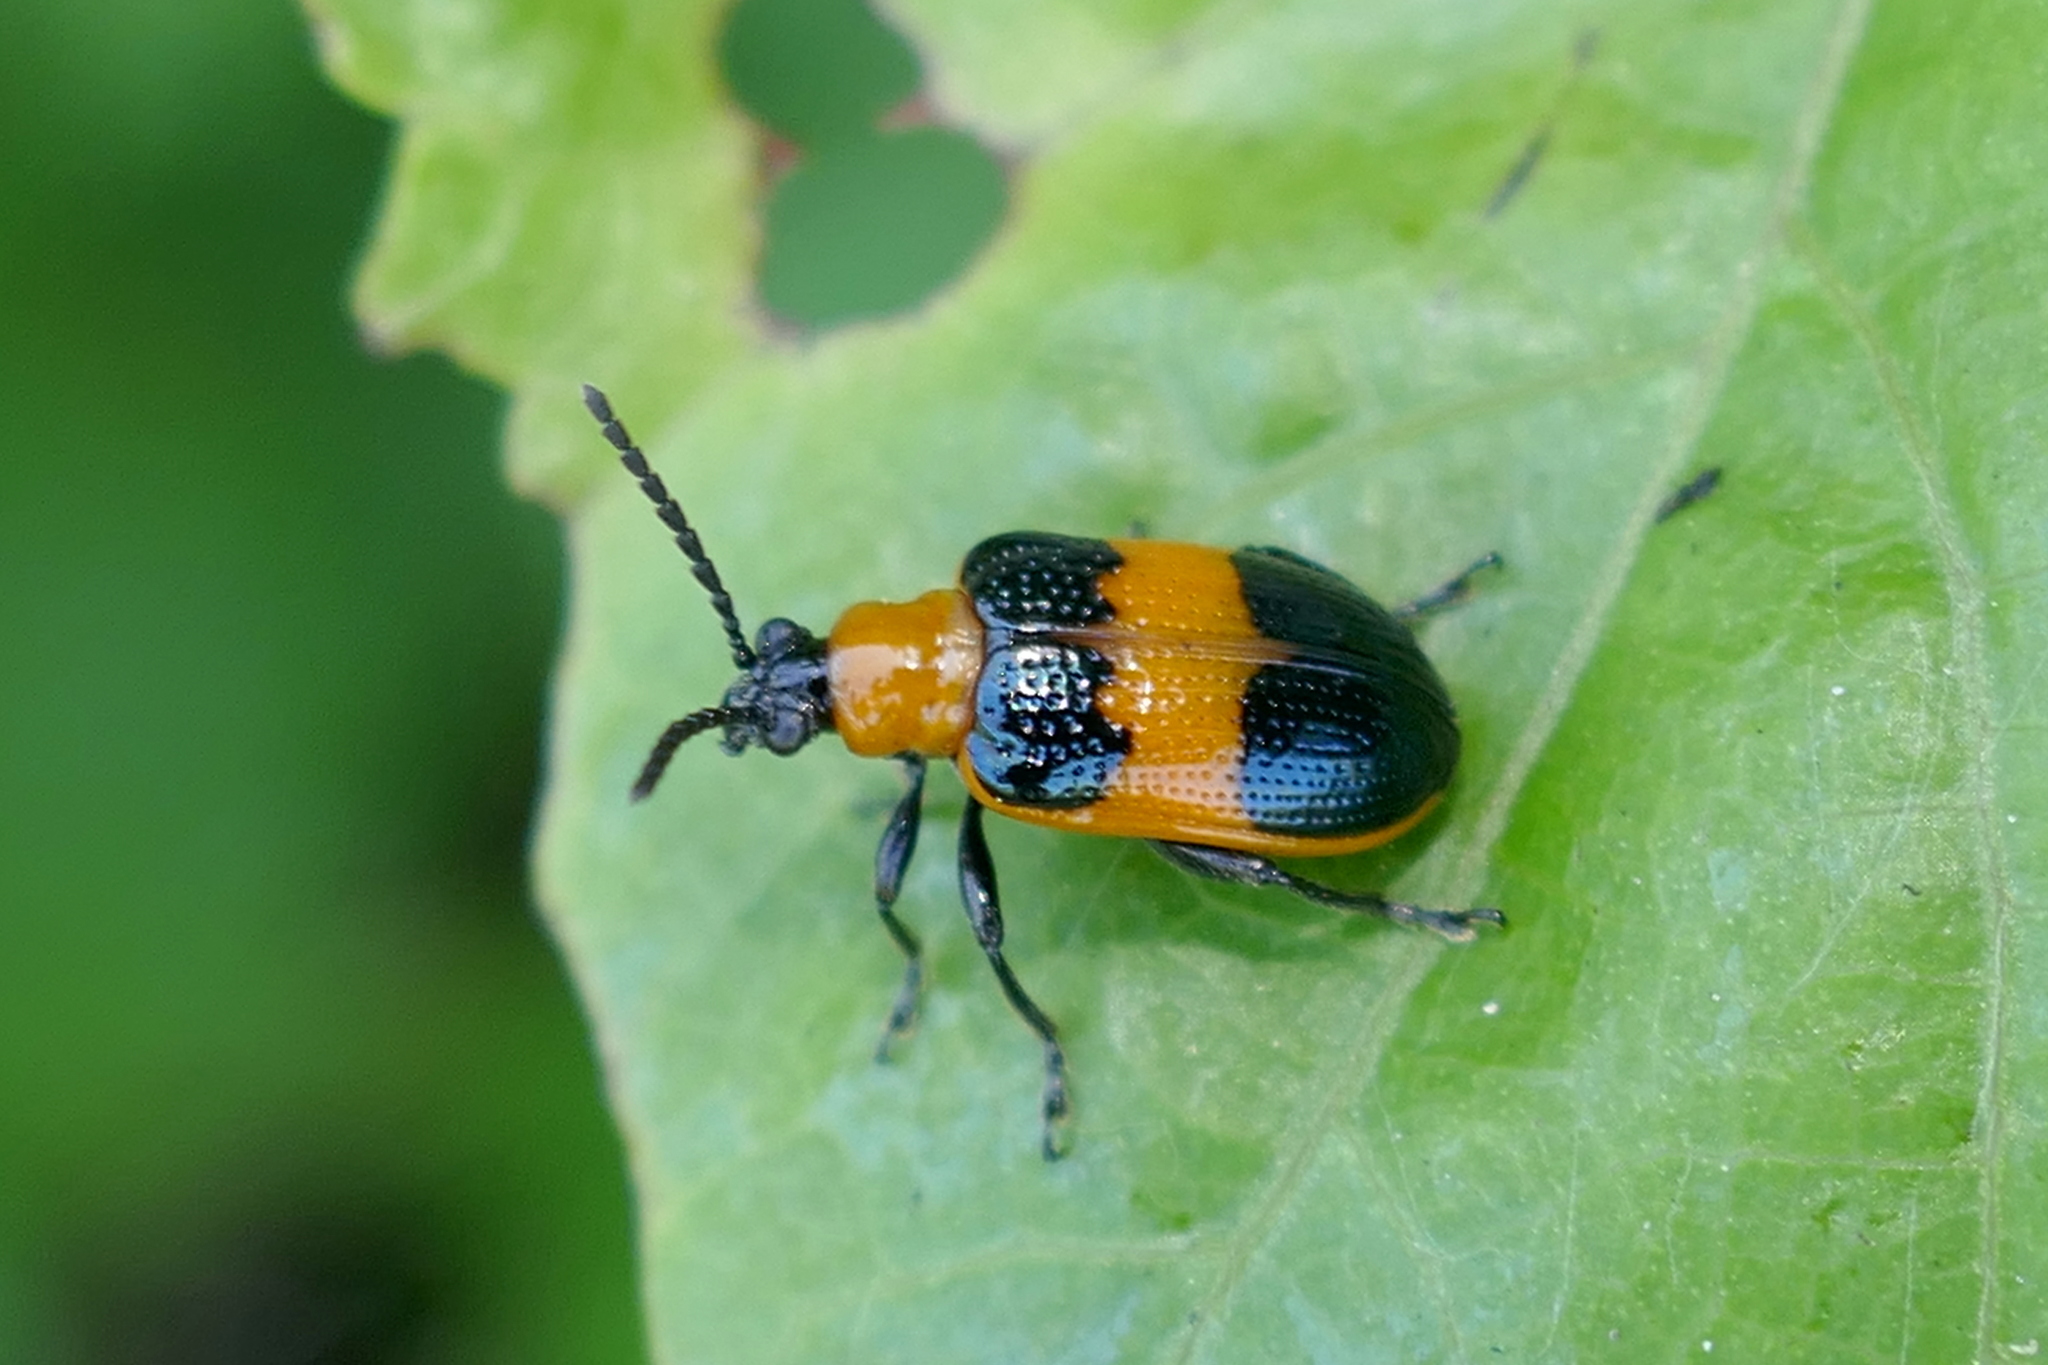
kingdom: Animalia
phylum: Arthropoda
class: Insecta
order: Coleoptera
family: Chrysomelidae
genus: Lema
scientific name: Lema solani
